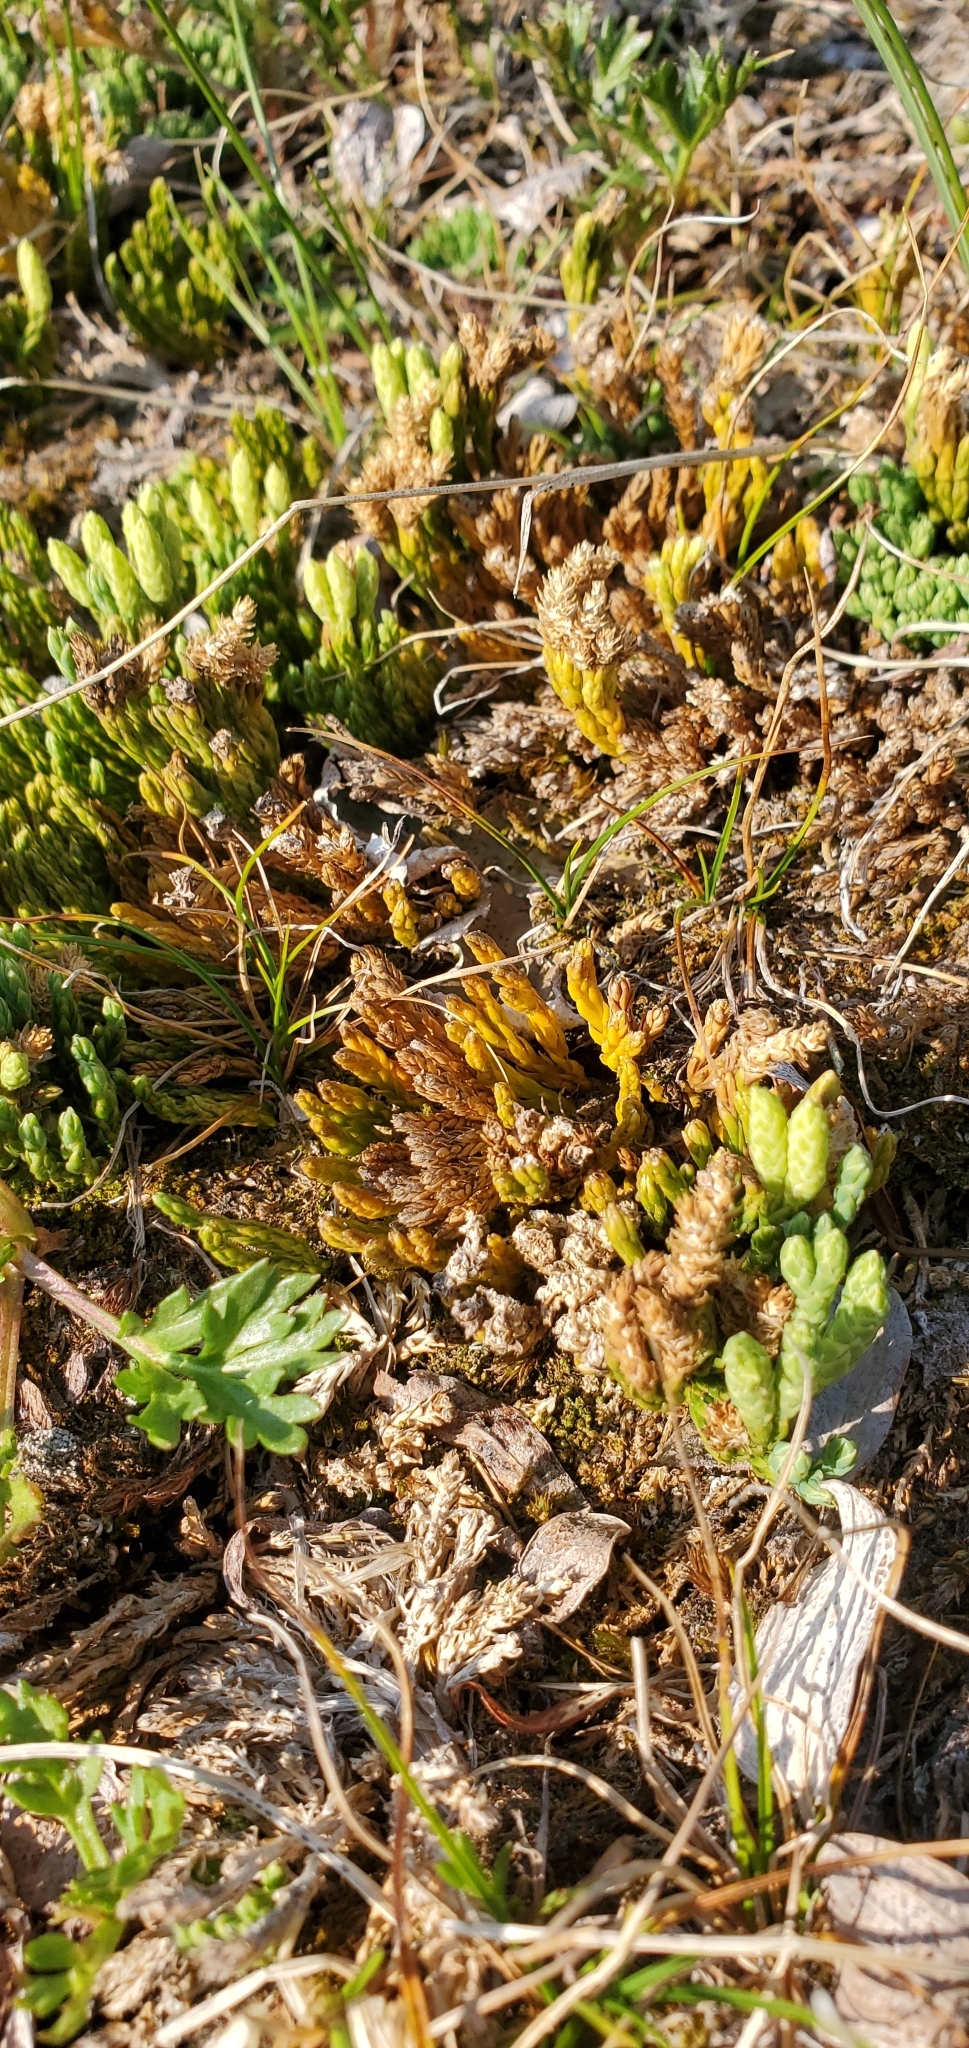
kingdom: Plantae
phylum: Tracheophyta
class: Lycopodiopsida
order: Lycopodiales
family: Lycopodiaceae
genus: Diphasiastrum
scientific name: Diphasiastrum alpinum
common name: Alpine clubmoss
